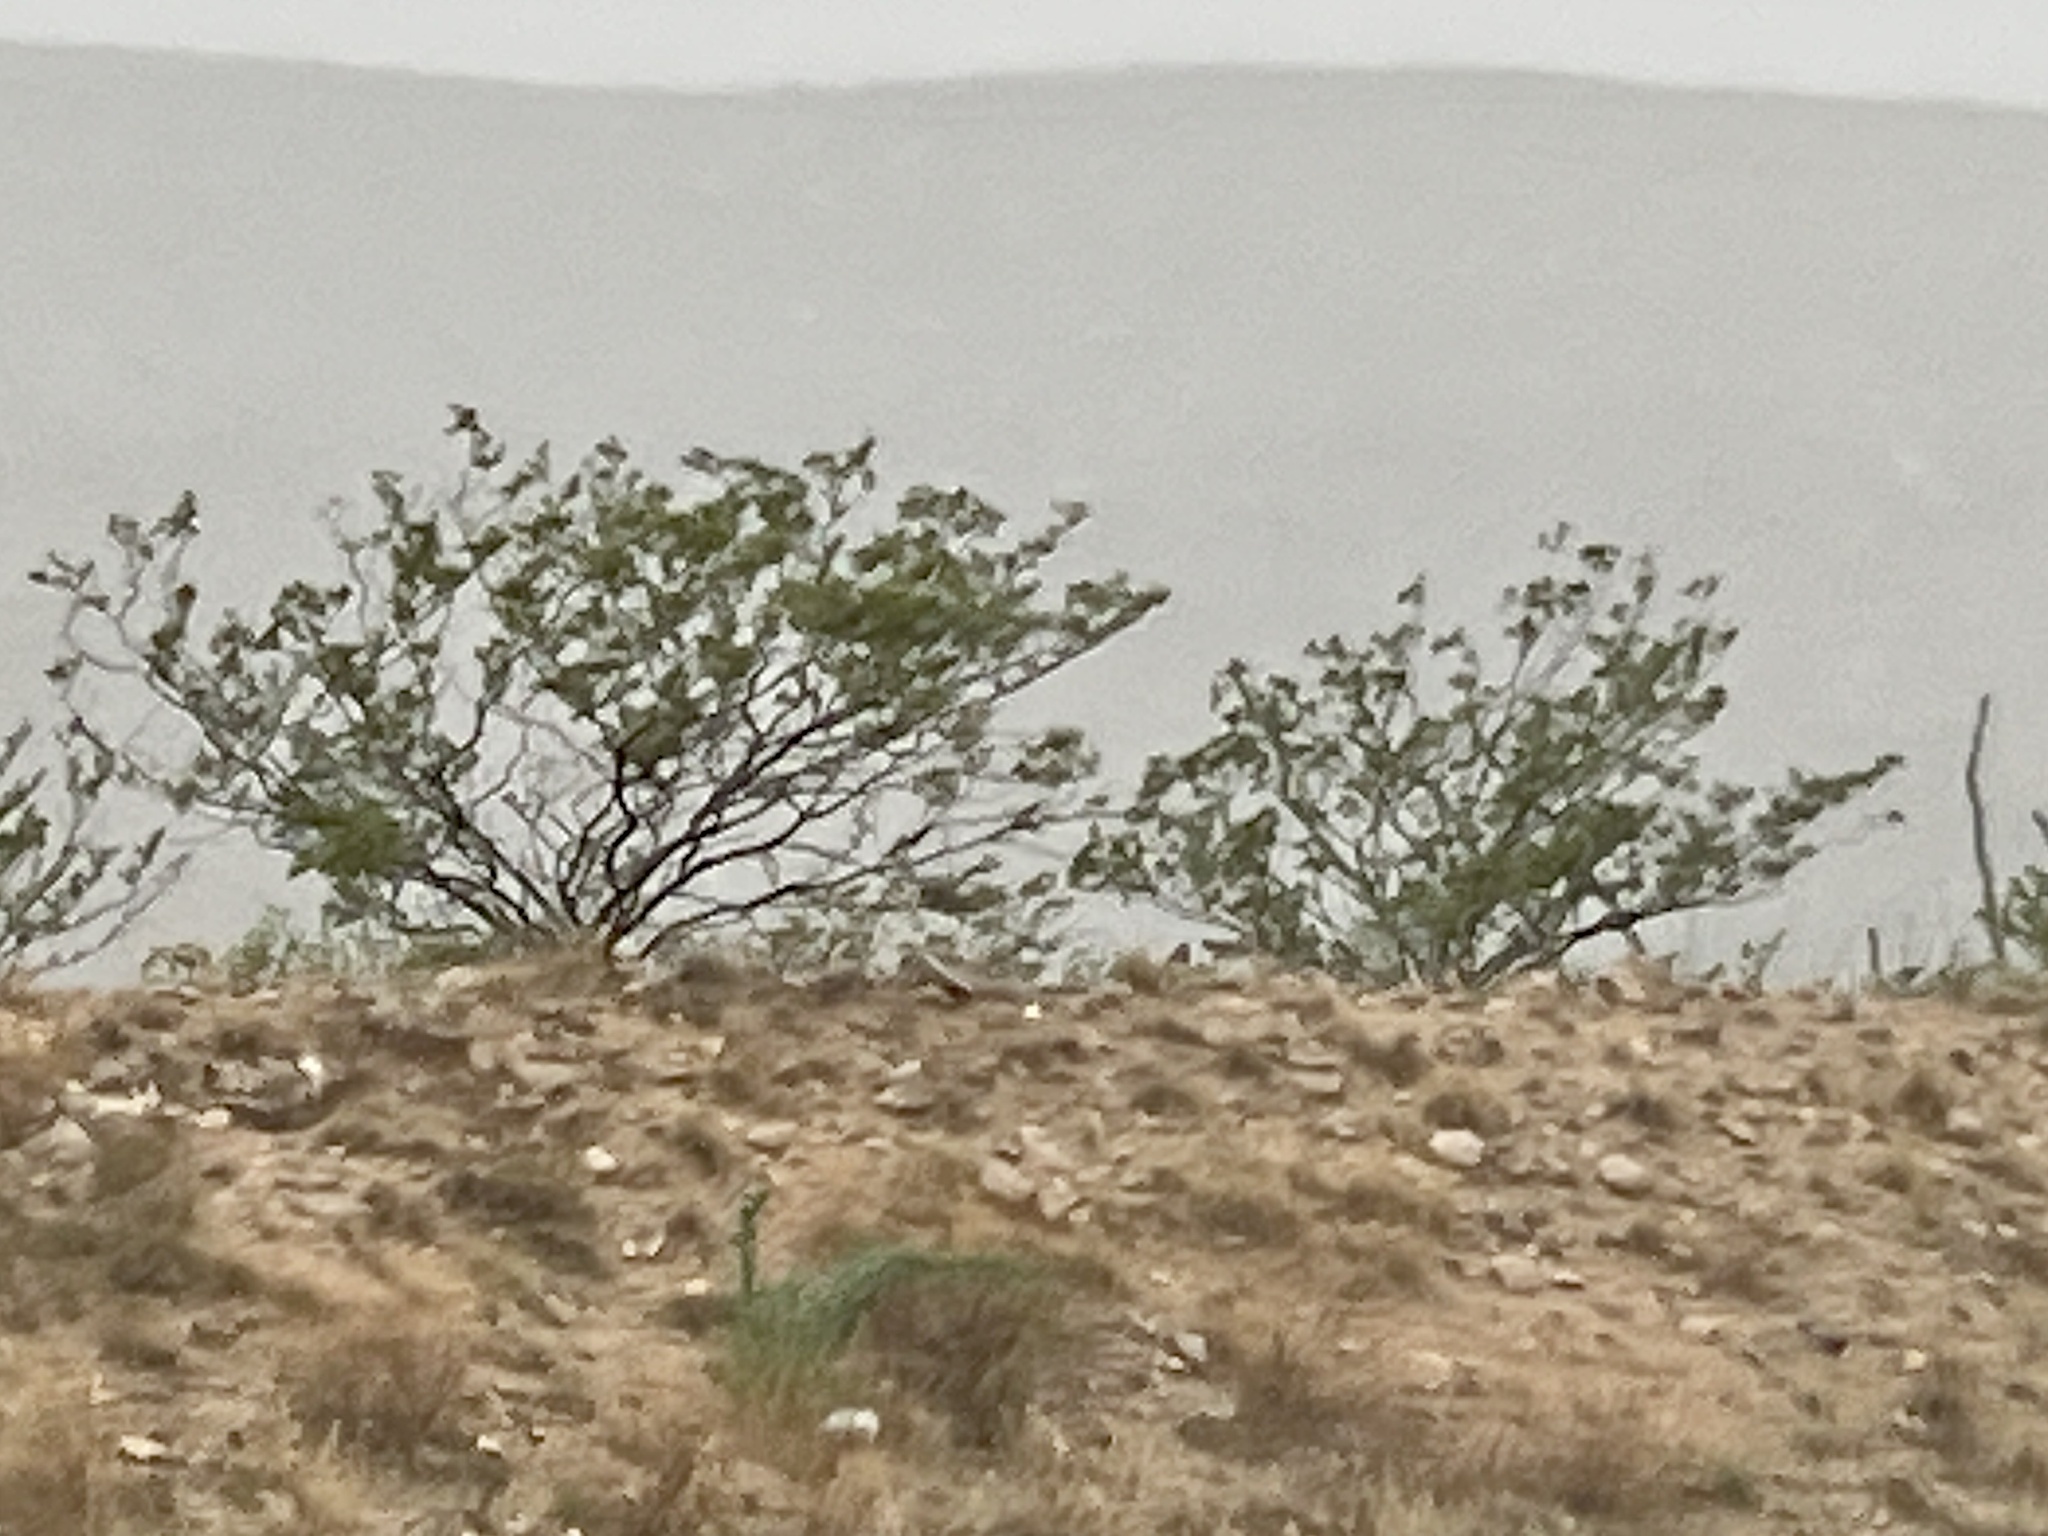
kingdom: Plantae
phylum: Tracheophyta
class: Magnoliopsida
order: Zygophyllales
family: Zygophyllaceae
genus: Larrea
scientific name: Larrea tridentata
